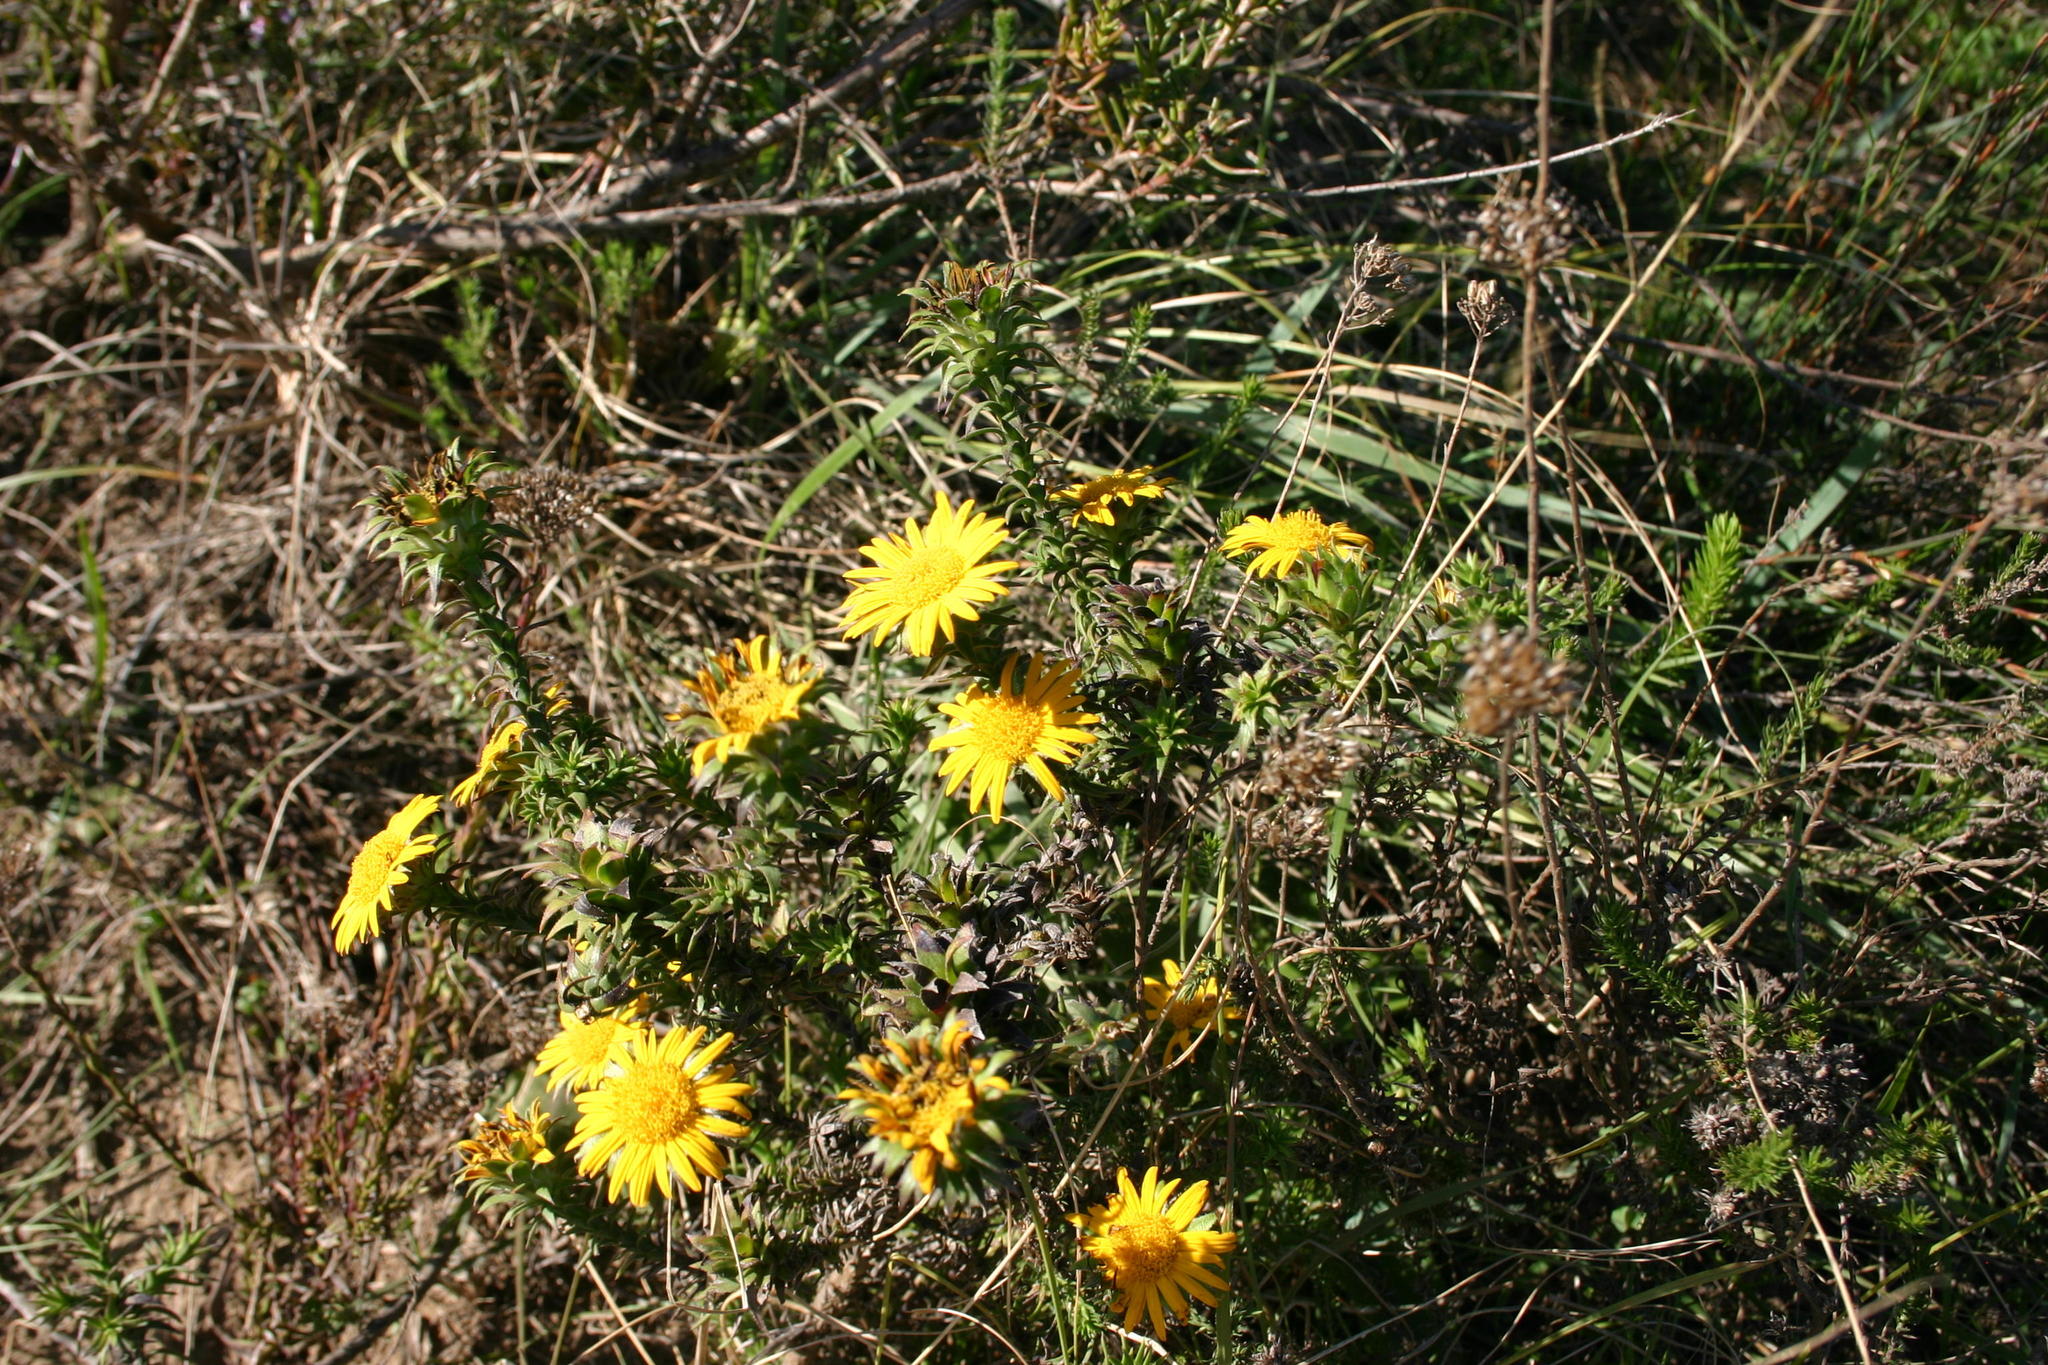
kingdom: Plantae
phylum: Tracheophyta
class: Magnoliopsida
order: Asterales
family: Asteraceae
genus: Oedera
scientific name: Oedera capensis
